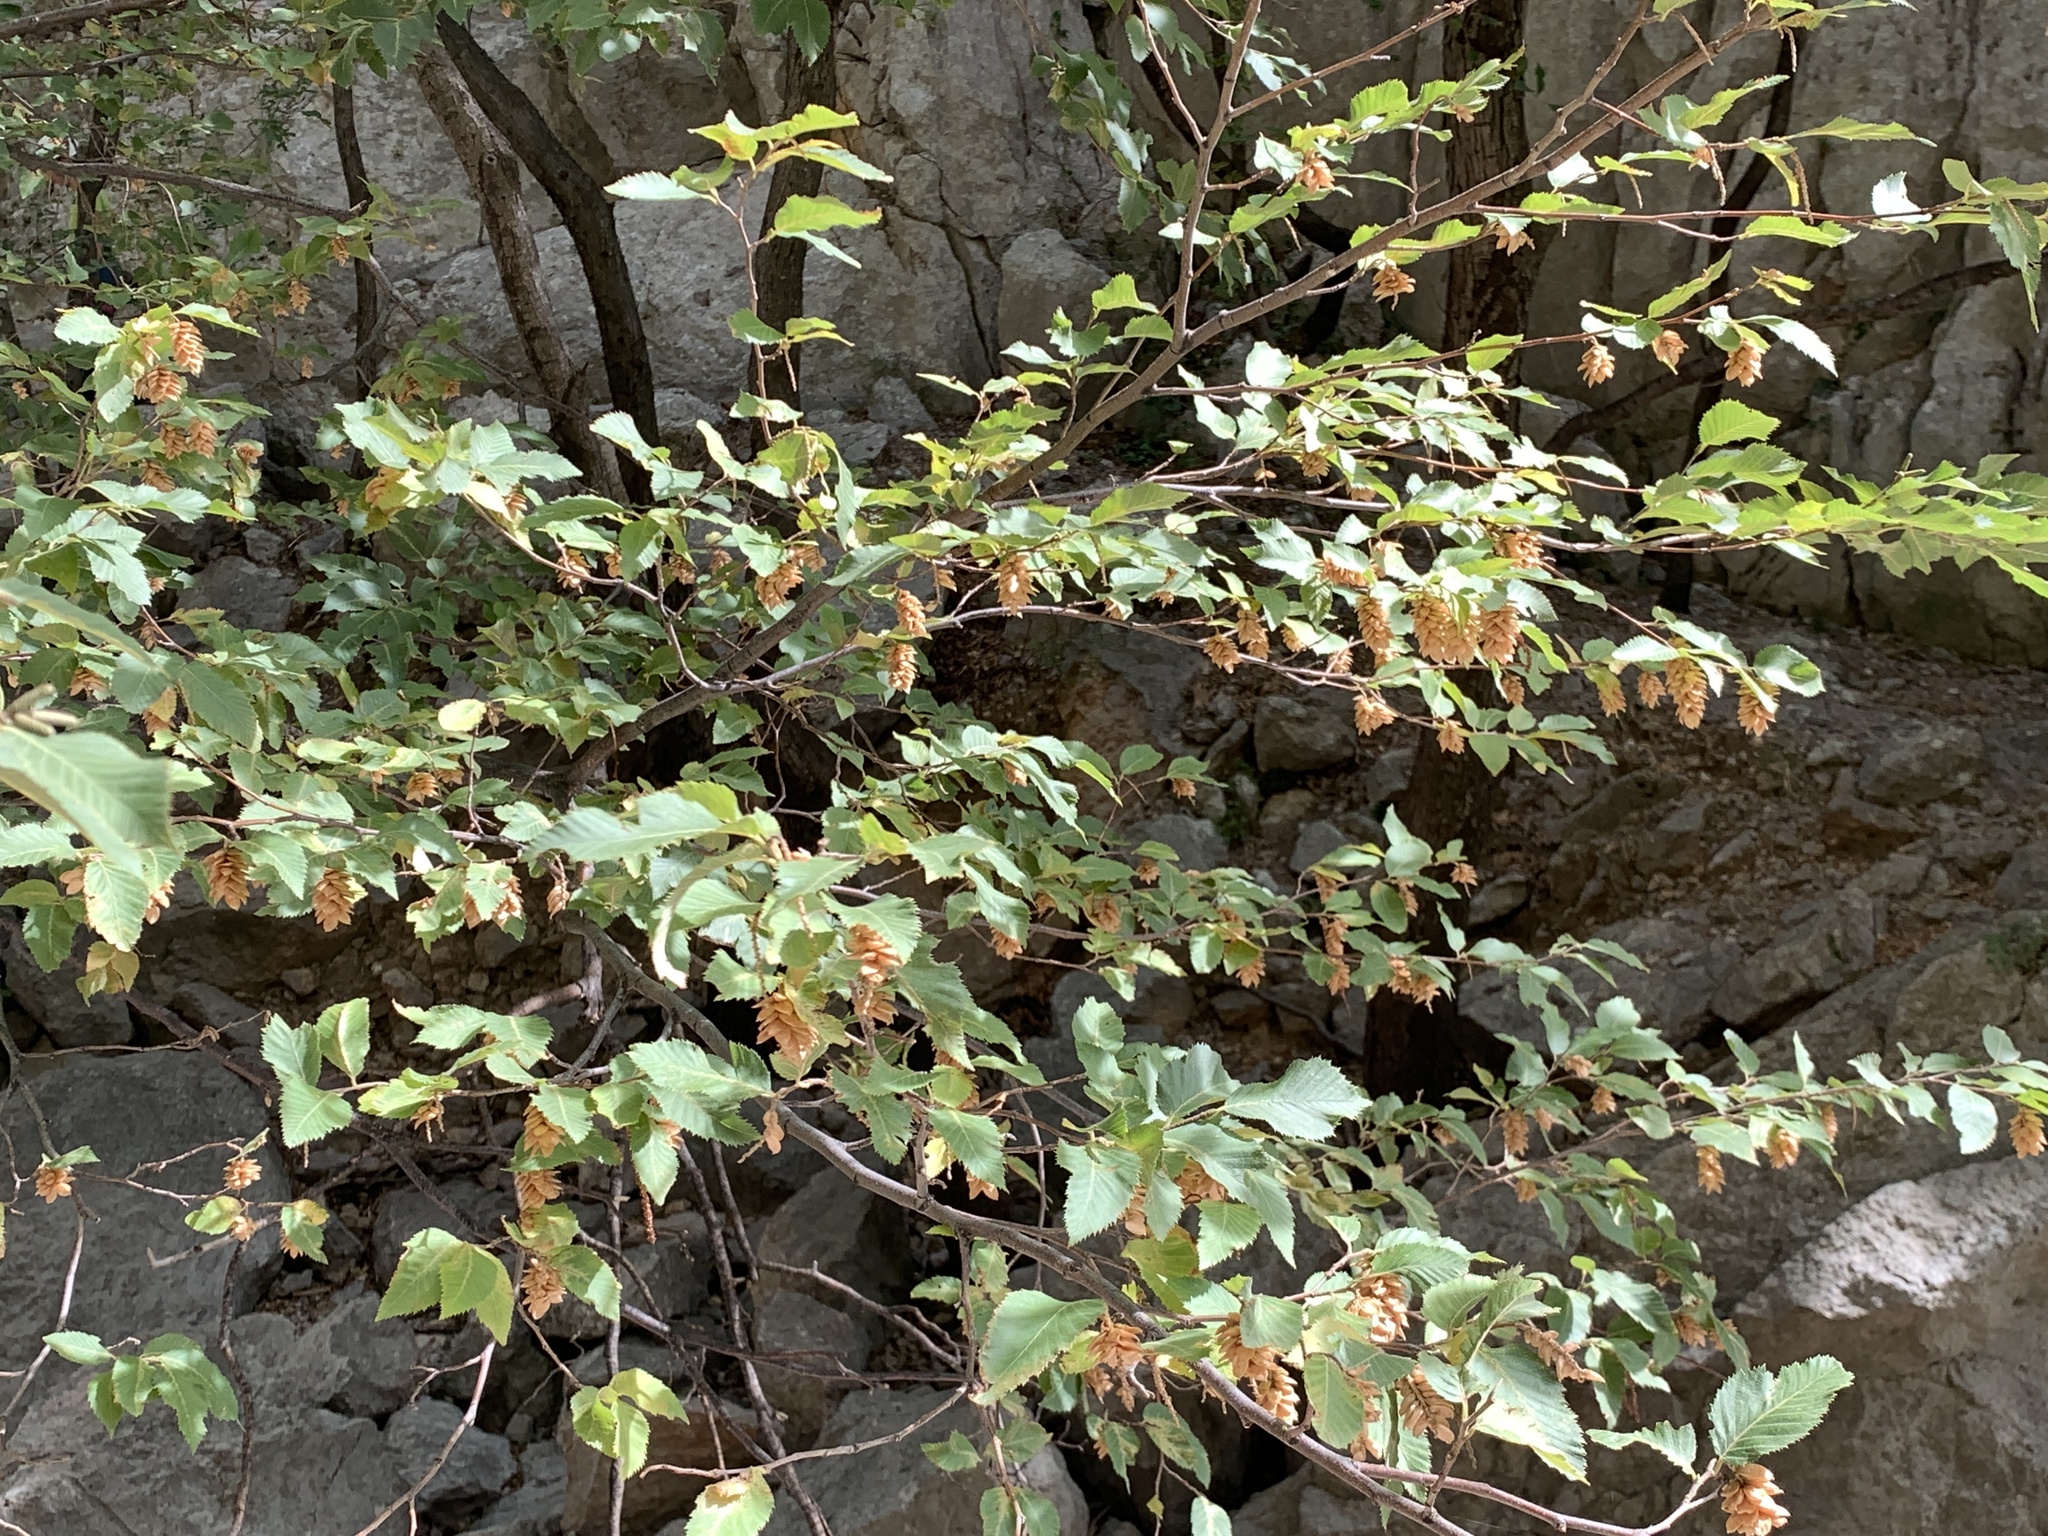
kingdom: Plantae
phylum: Tracheophyta
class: Magnoliopsida
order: Fagales
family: Betulaceae
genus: Ostrya
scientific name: Ostrya carpinifolia
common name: European hop-hornbeam
